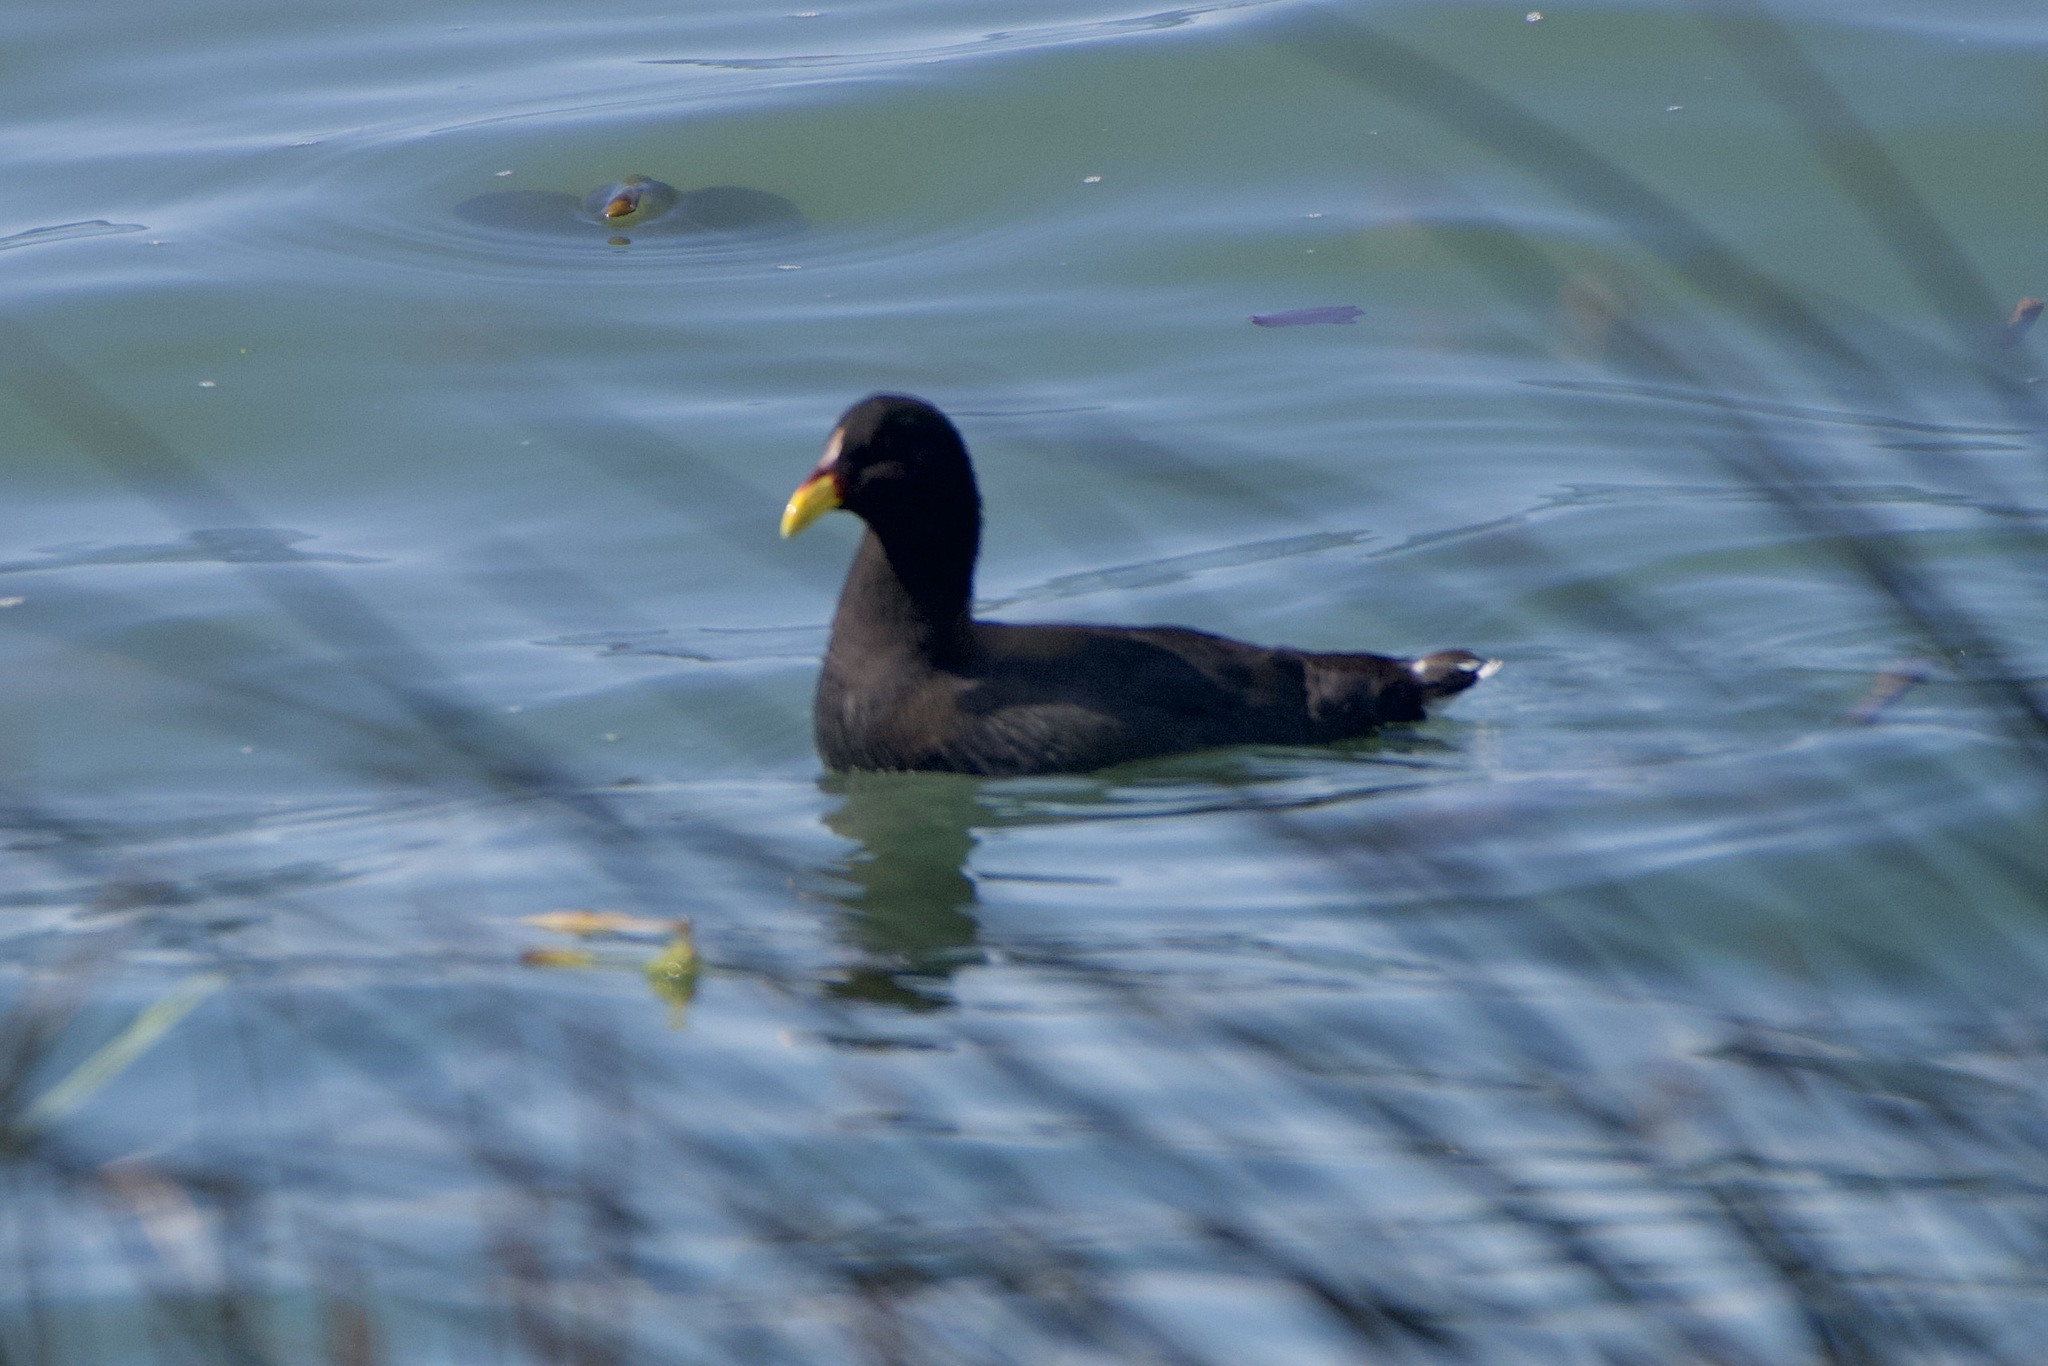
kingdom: Animalia
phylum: Chordata
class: Aves
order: Gruiformes
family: Rallidae
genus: Fulica
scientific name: Fulica rufifrons
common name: Red-fronted coot
